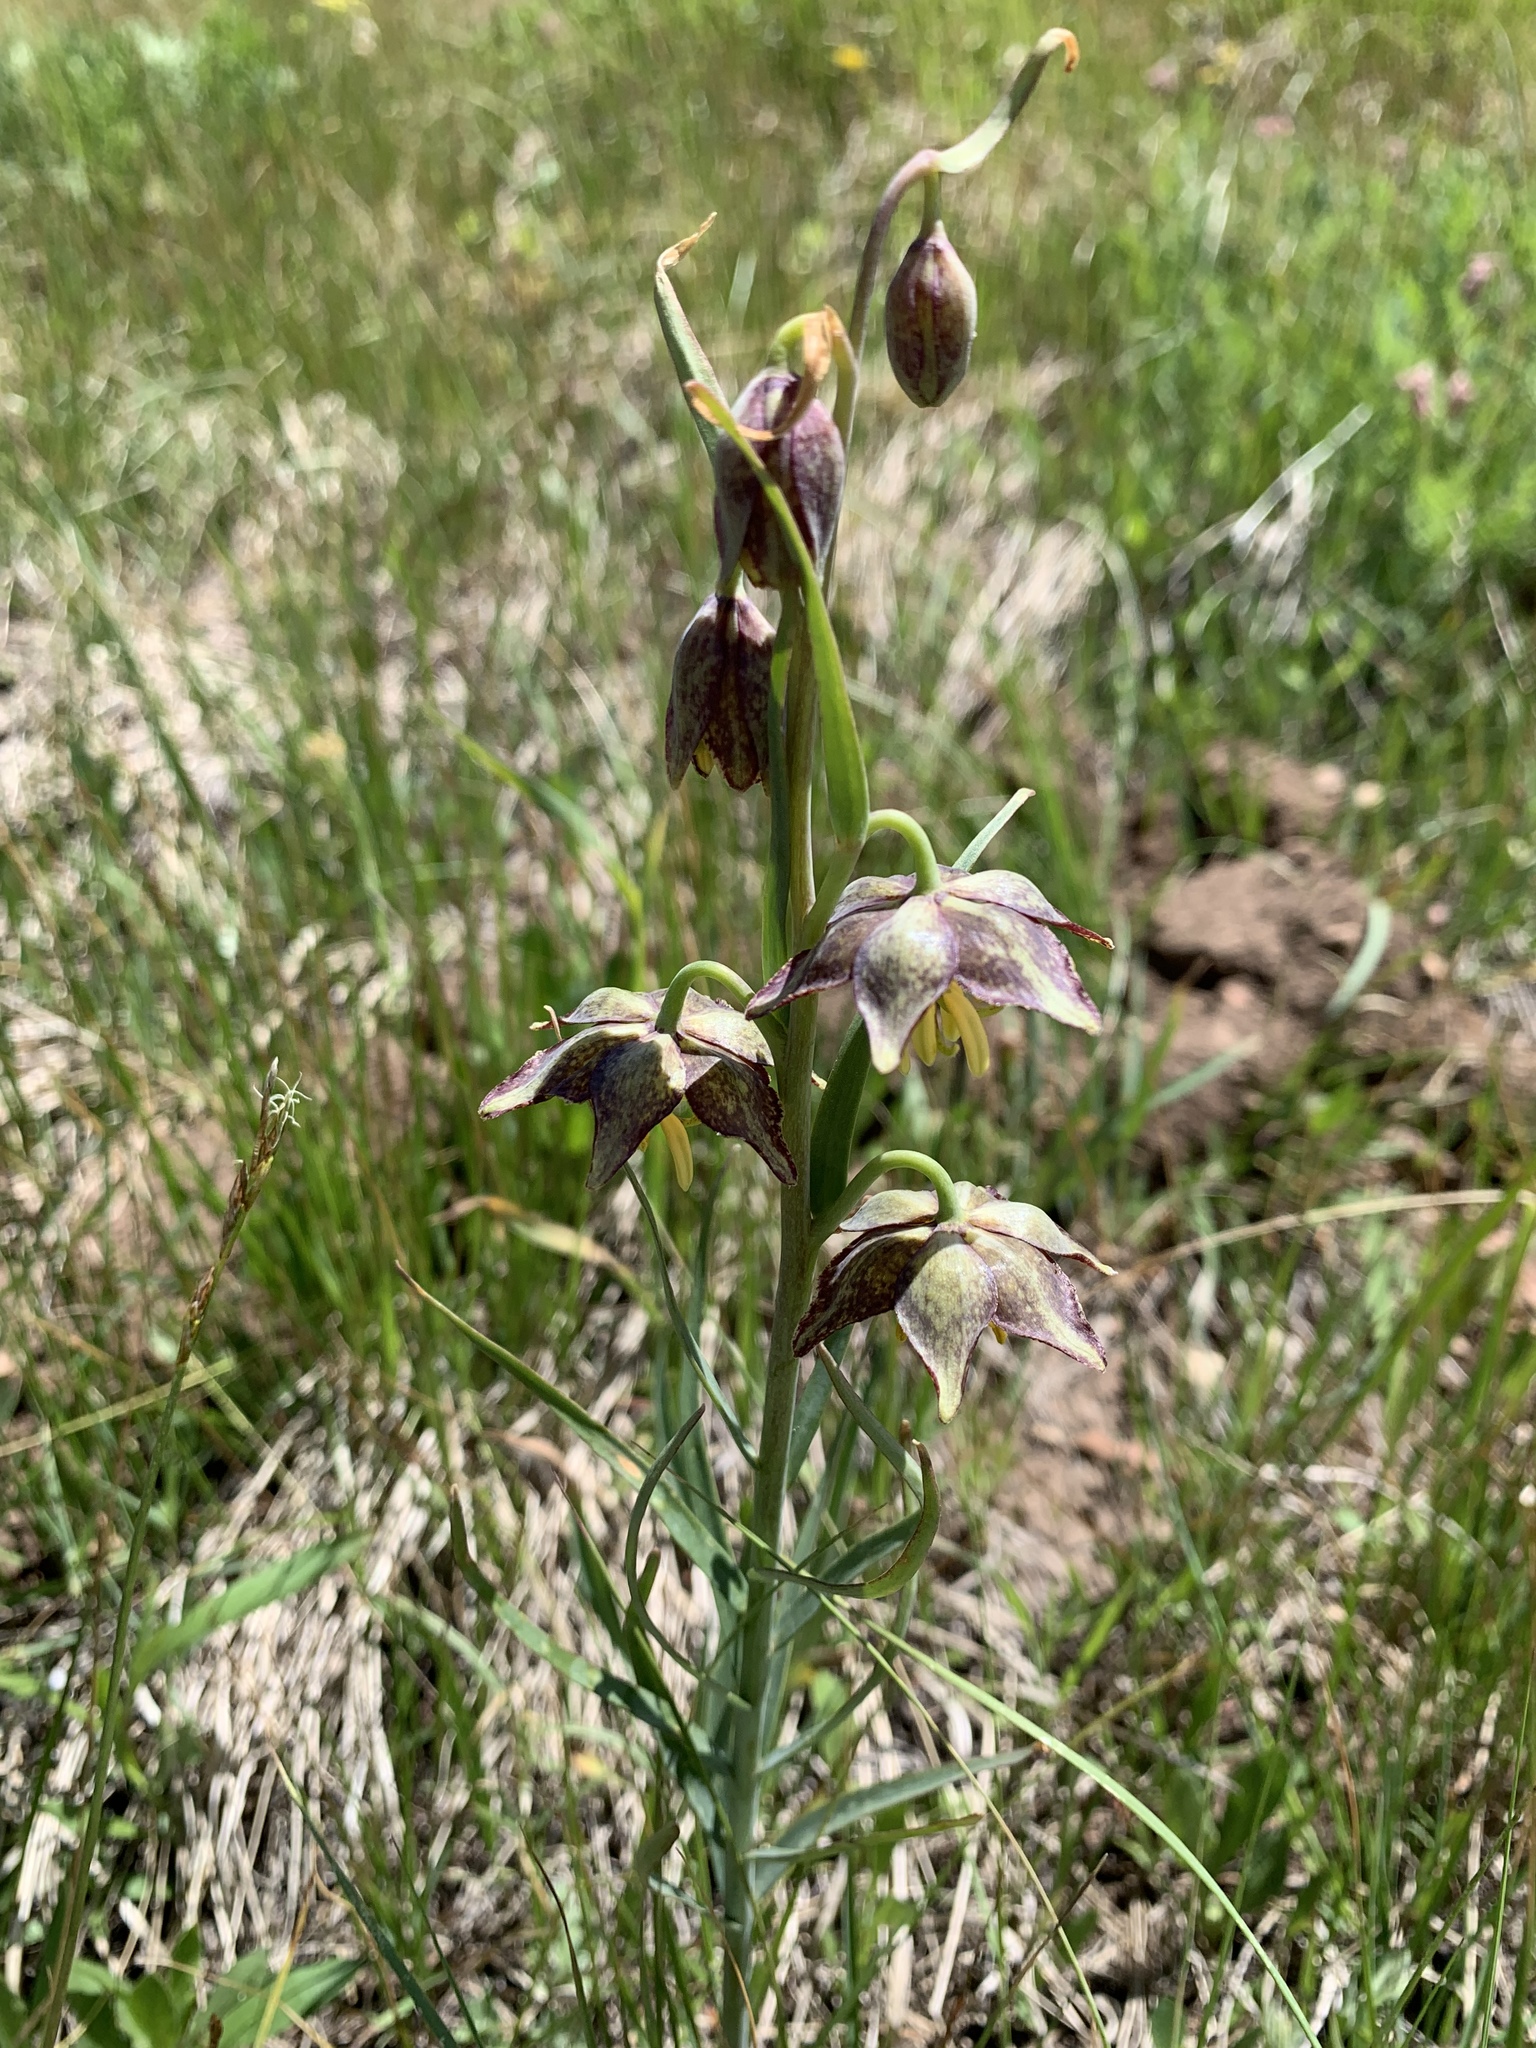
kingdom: Plantae
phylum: Tracheophyta
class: Liliopsida
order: Liliales
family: Liliaceae
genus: Fritillaria
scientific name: Fritillaria atropurpurea
